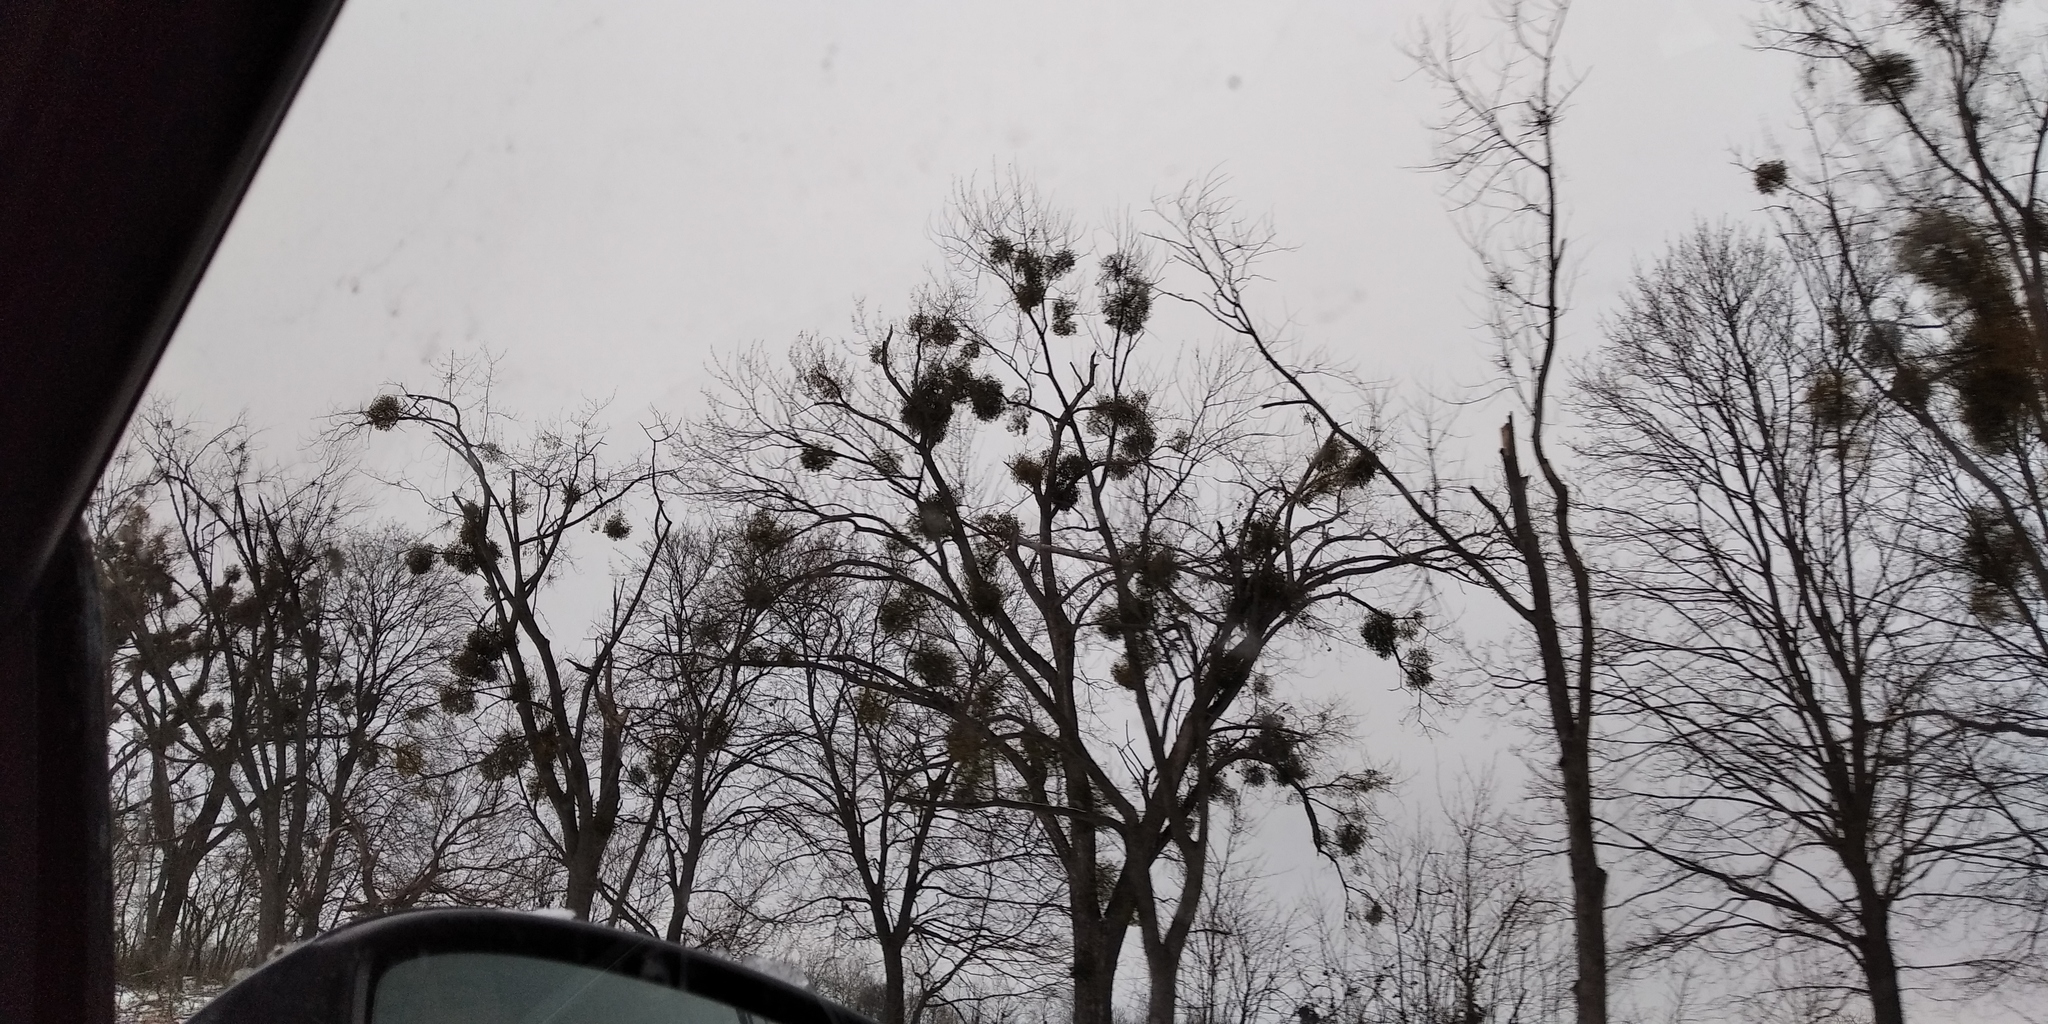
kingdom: Plantae
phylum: Tracheophyta
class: Magnoliopsida
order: Santalales
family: Viscaceae
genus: Viscum
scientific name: Viscum album
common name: Mistletoe
